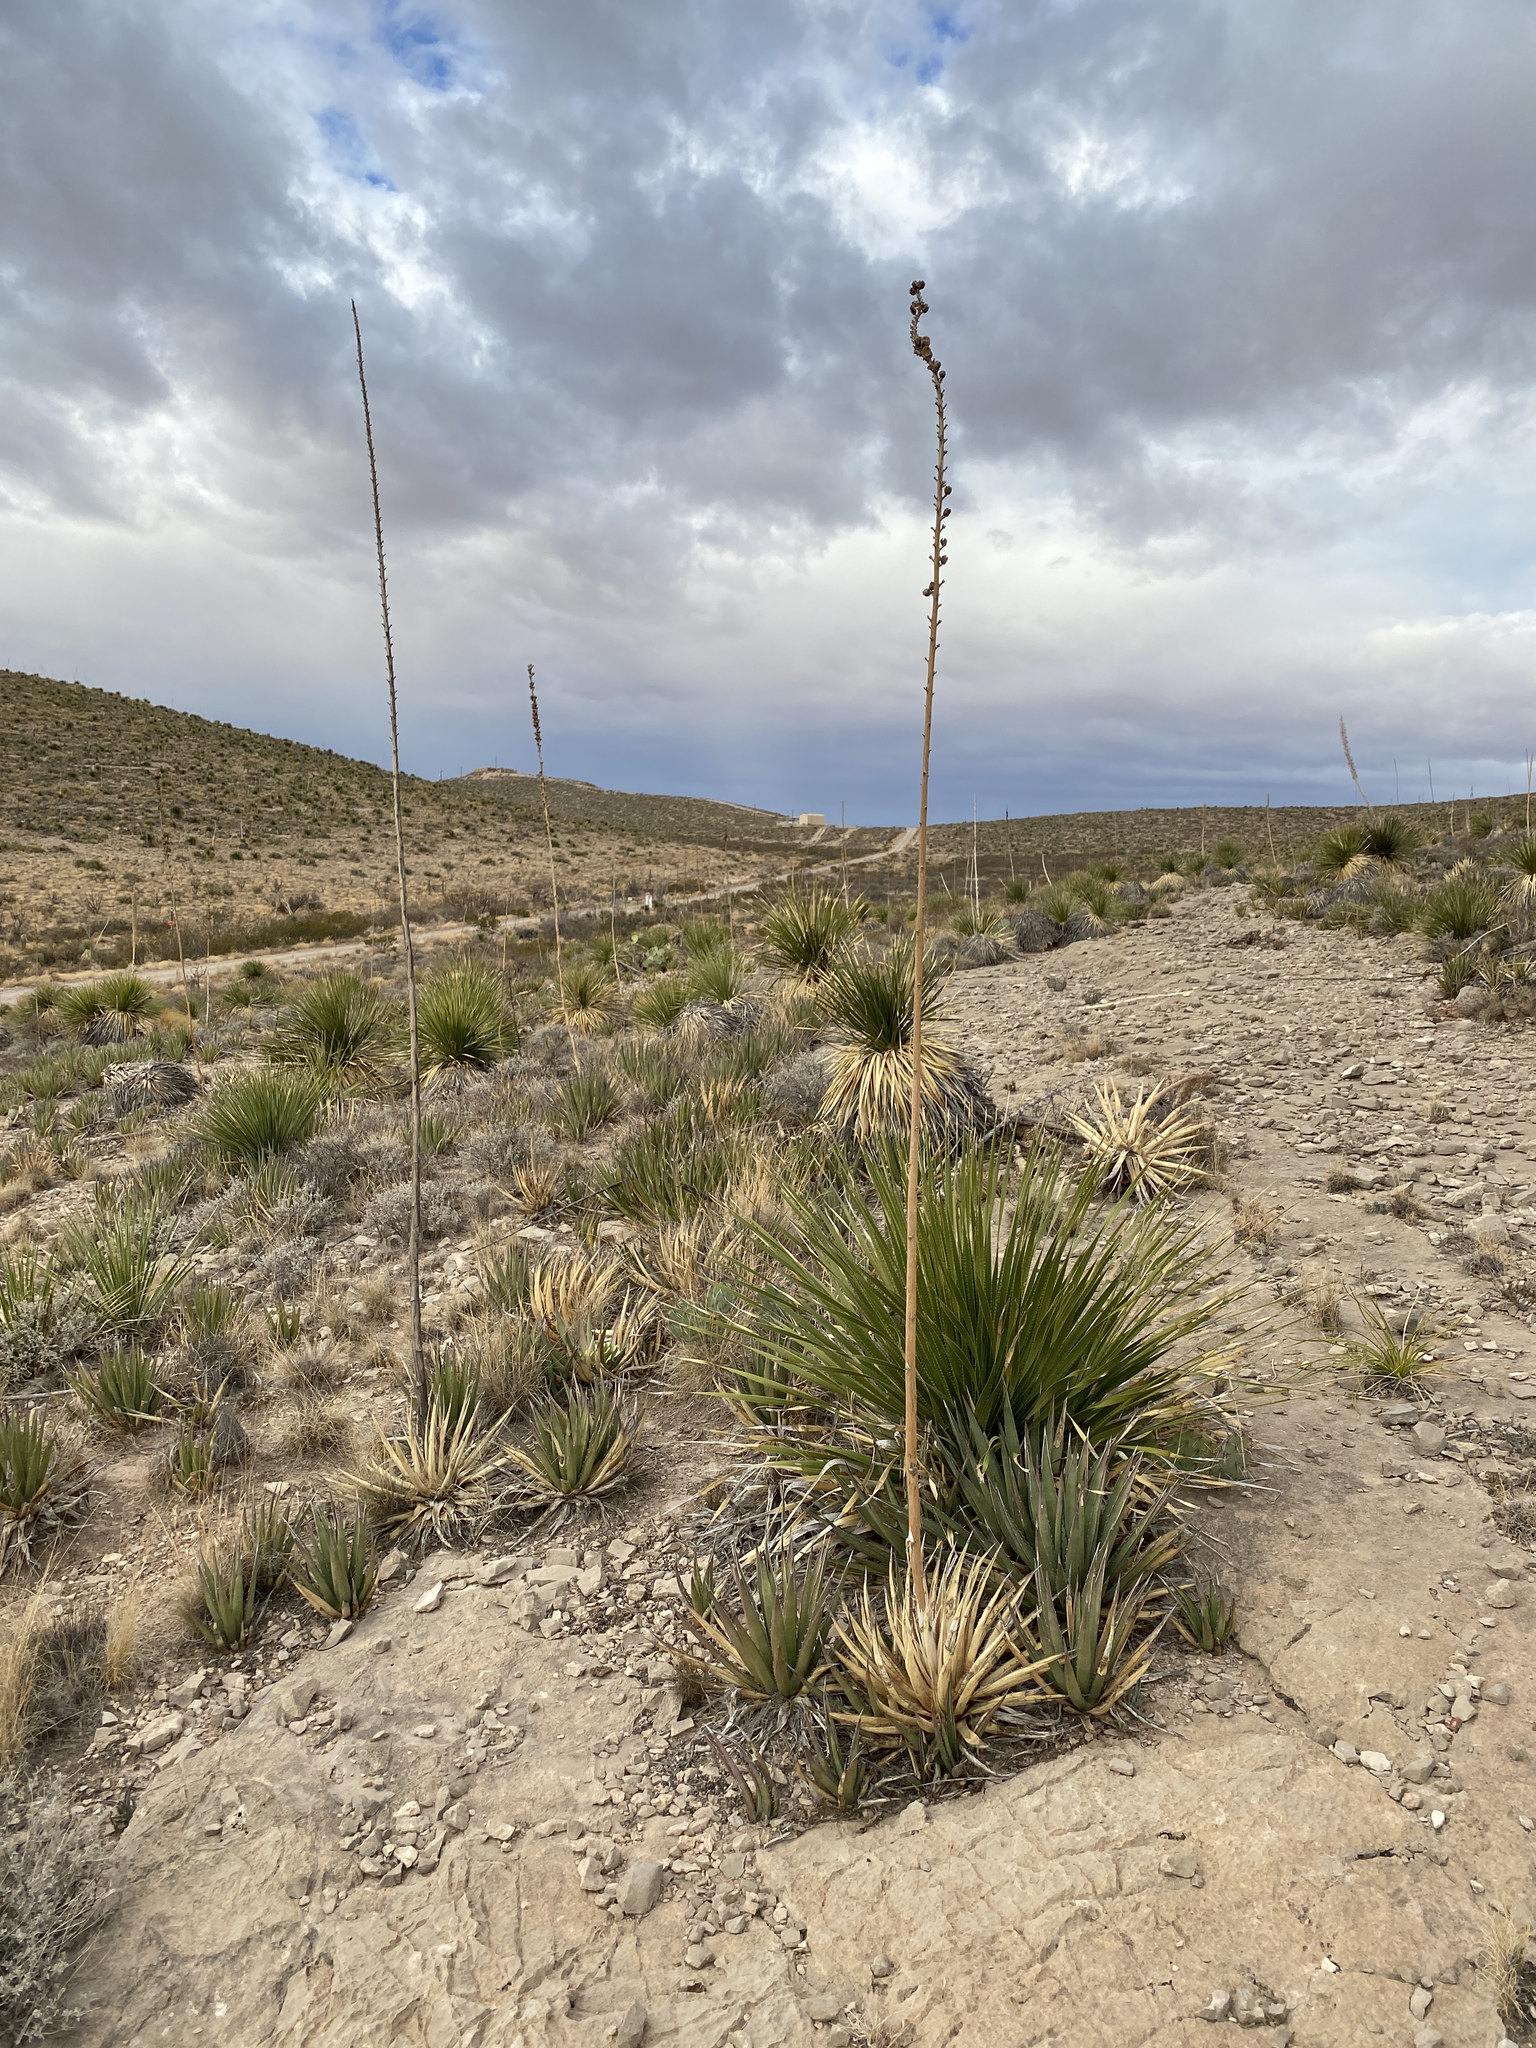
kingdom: Plantae
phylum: Tracheophyta
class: Liliopsida
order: Asparagales
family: Asparagaceae
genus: Agave
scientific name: Agave lechuguilla
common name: Lecheguilla agave
